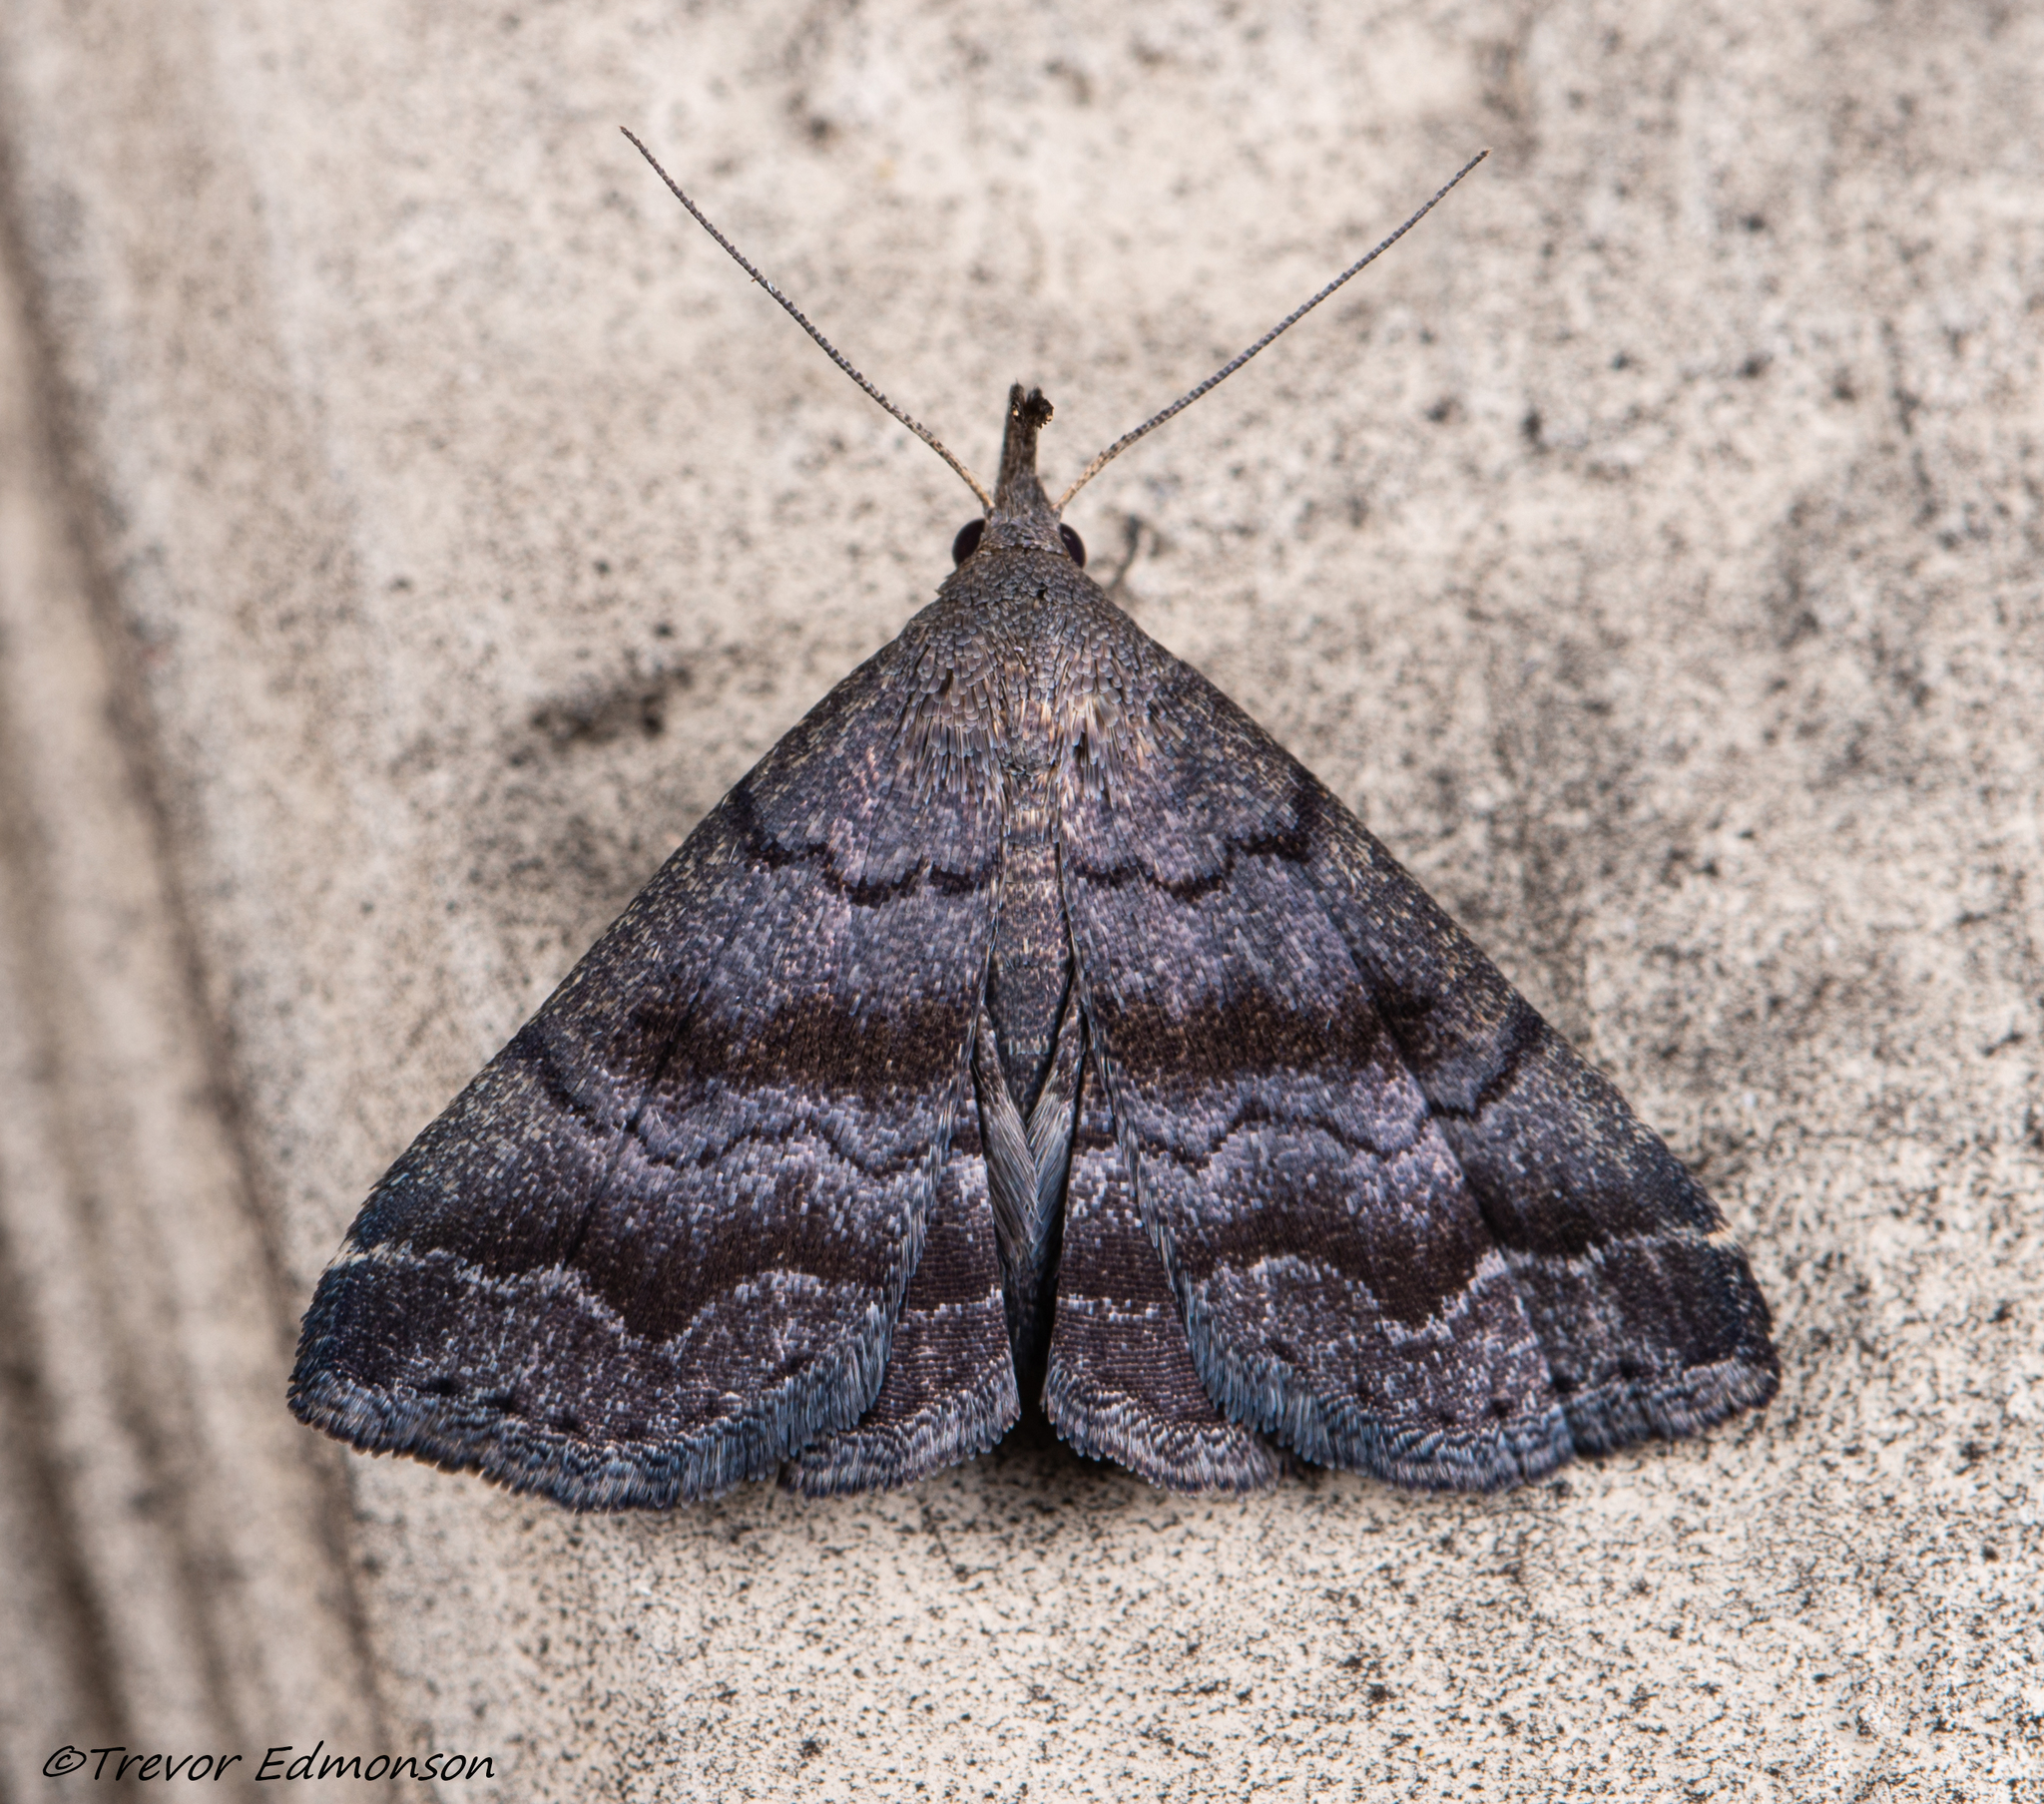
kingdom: Animalia
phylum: Arthropoda
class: Insecta
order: Lepidoptera
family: Erebidae
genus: Phalaenostola
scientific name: Phalaenostola larentioides
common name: Black-banded owlet
